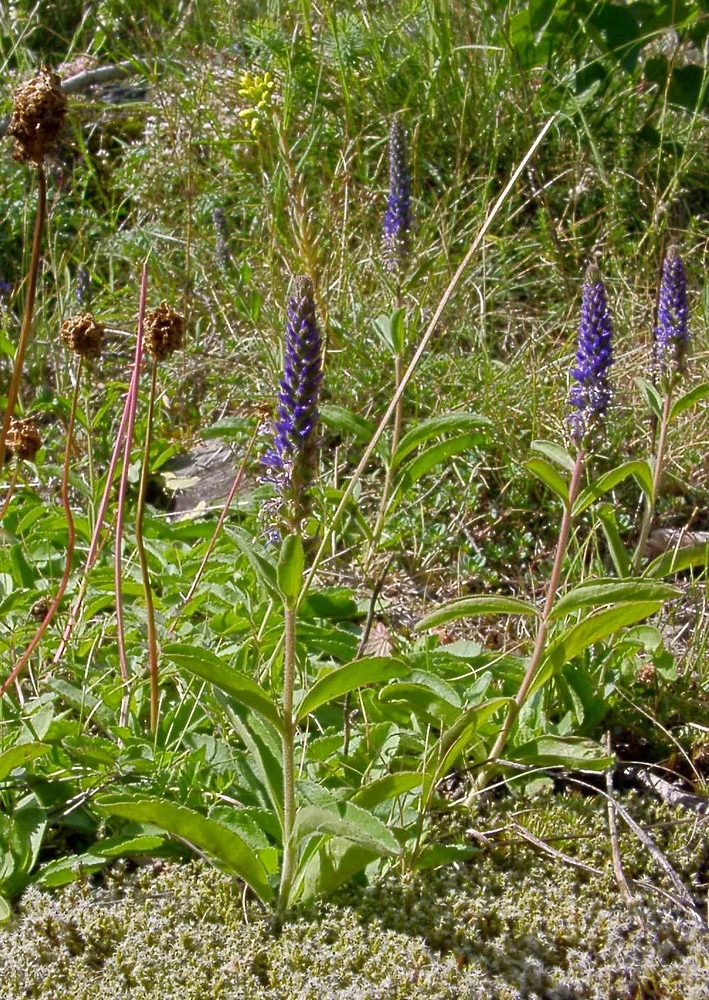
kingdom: Plantae
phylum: Tracheophyta
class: Magnoliopsida
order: Lamiales
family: Plantaginaceae
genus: Veronica
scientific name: Veronica spicata
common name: Spiked speedwell
